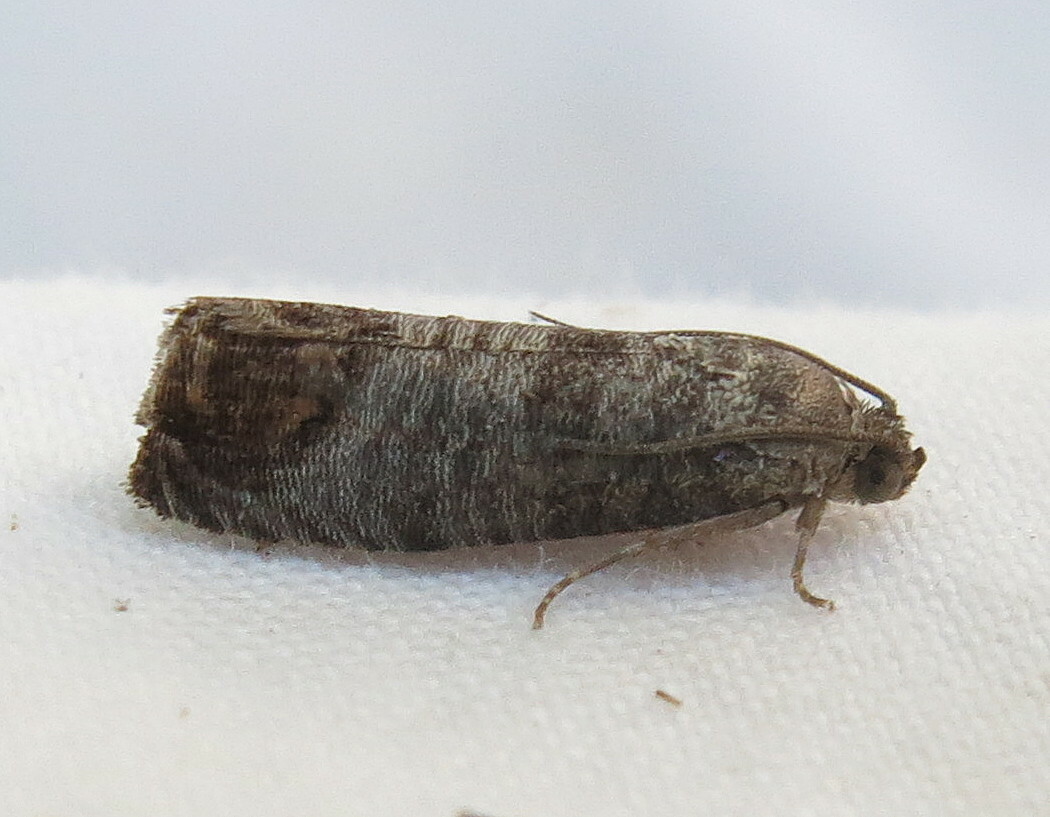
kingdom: Animalia
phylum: Arthropoda
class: Insecta
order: Lepidoptera
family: Tortricidae
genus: Cydia
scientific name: Cydia pomonella
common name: Codling moth
